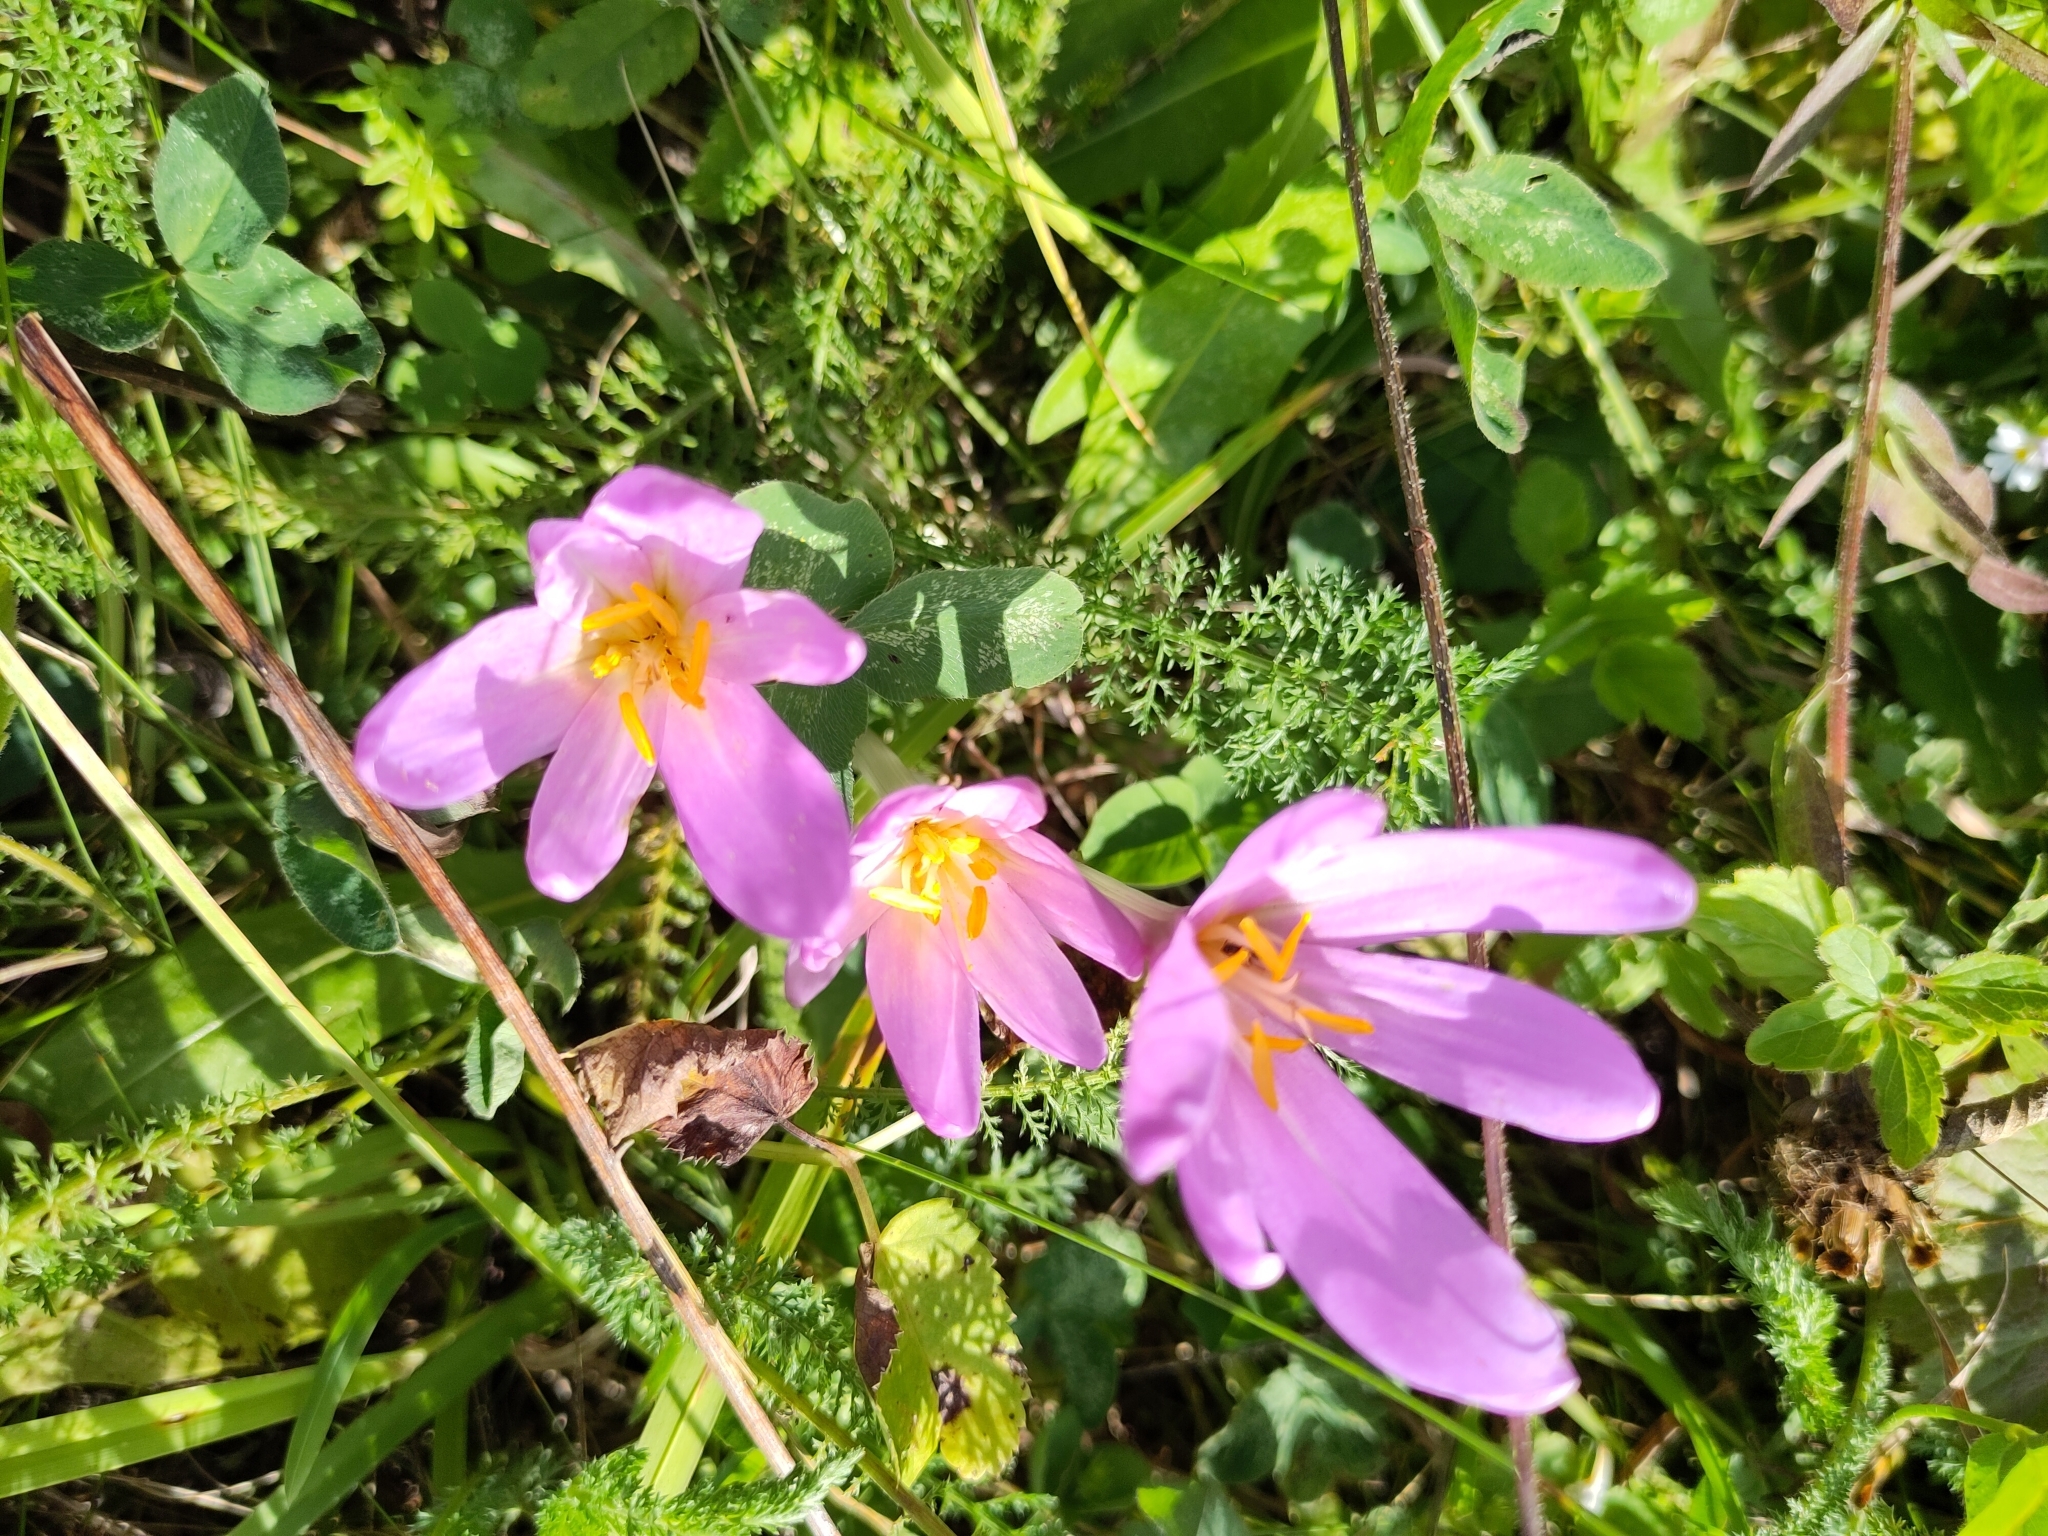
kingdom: Plantae
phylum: Tracheophyta
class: Liliopsida
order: Liliales
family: Colchicaceae
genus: Colchicum
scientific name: Colchicum autumnale
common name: Autumn crocus
